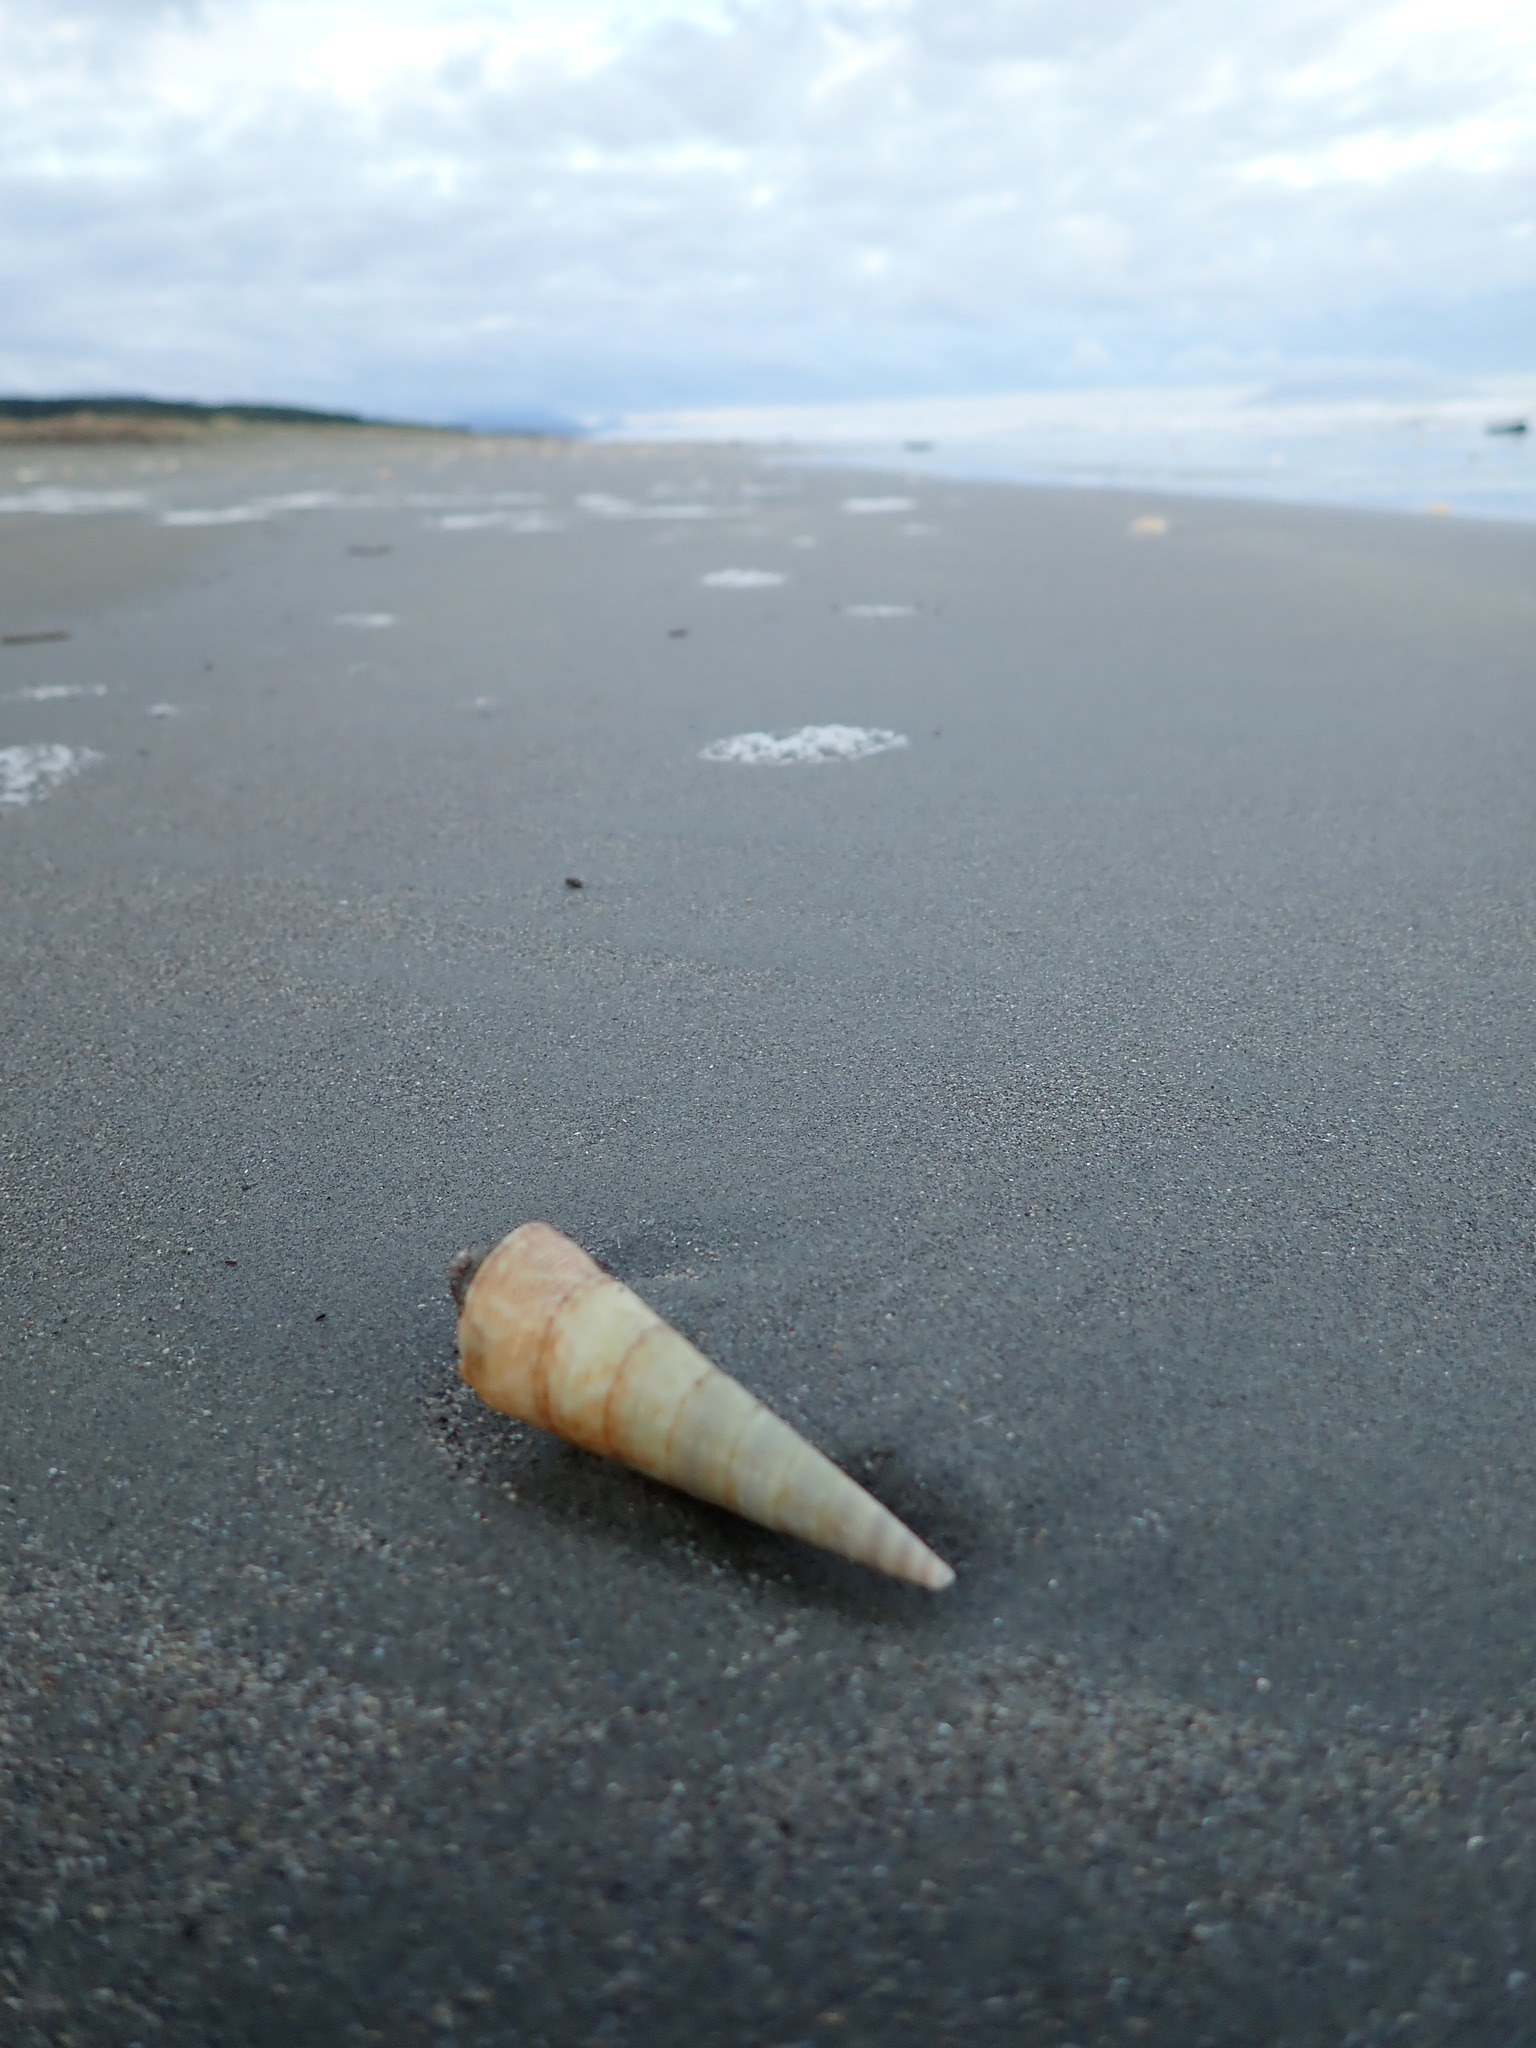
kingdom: Animalia
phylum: Mollusca
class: Gastropoda
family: Turritellidae
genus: Maoricolpus
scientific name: Maoricolpus roseus
